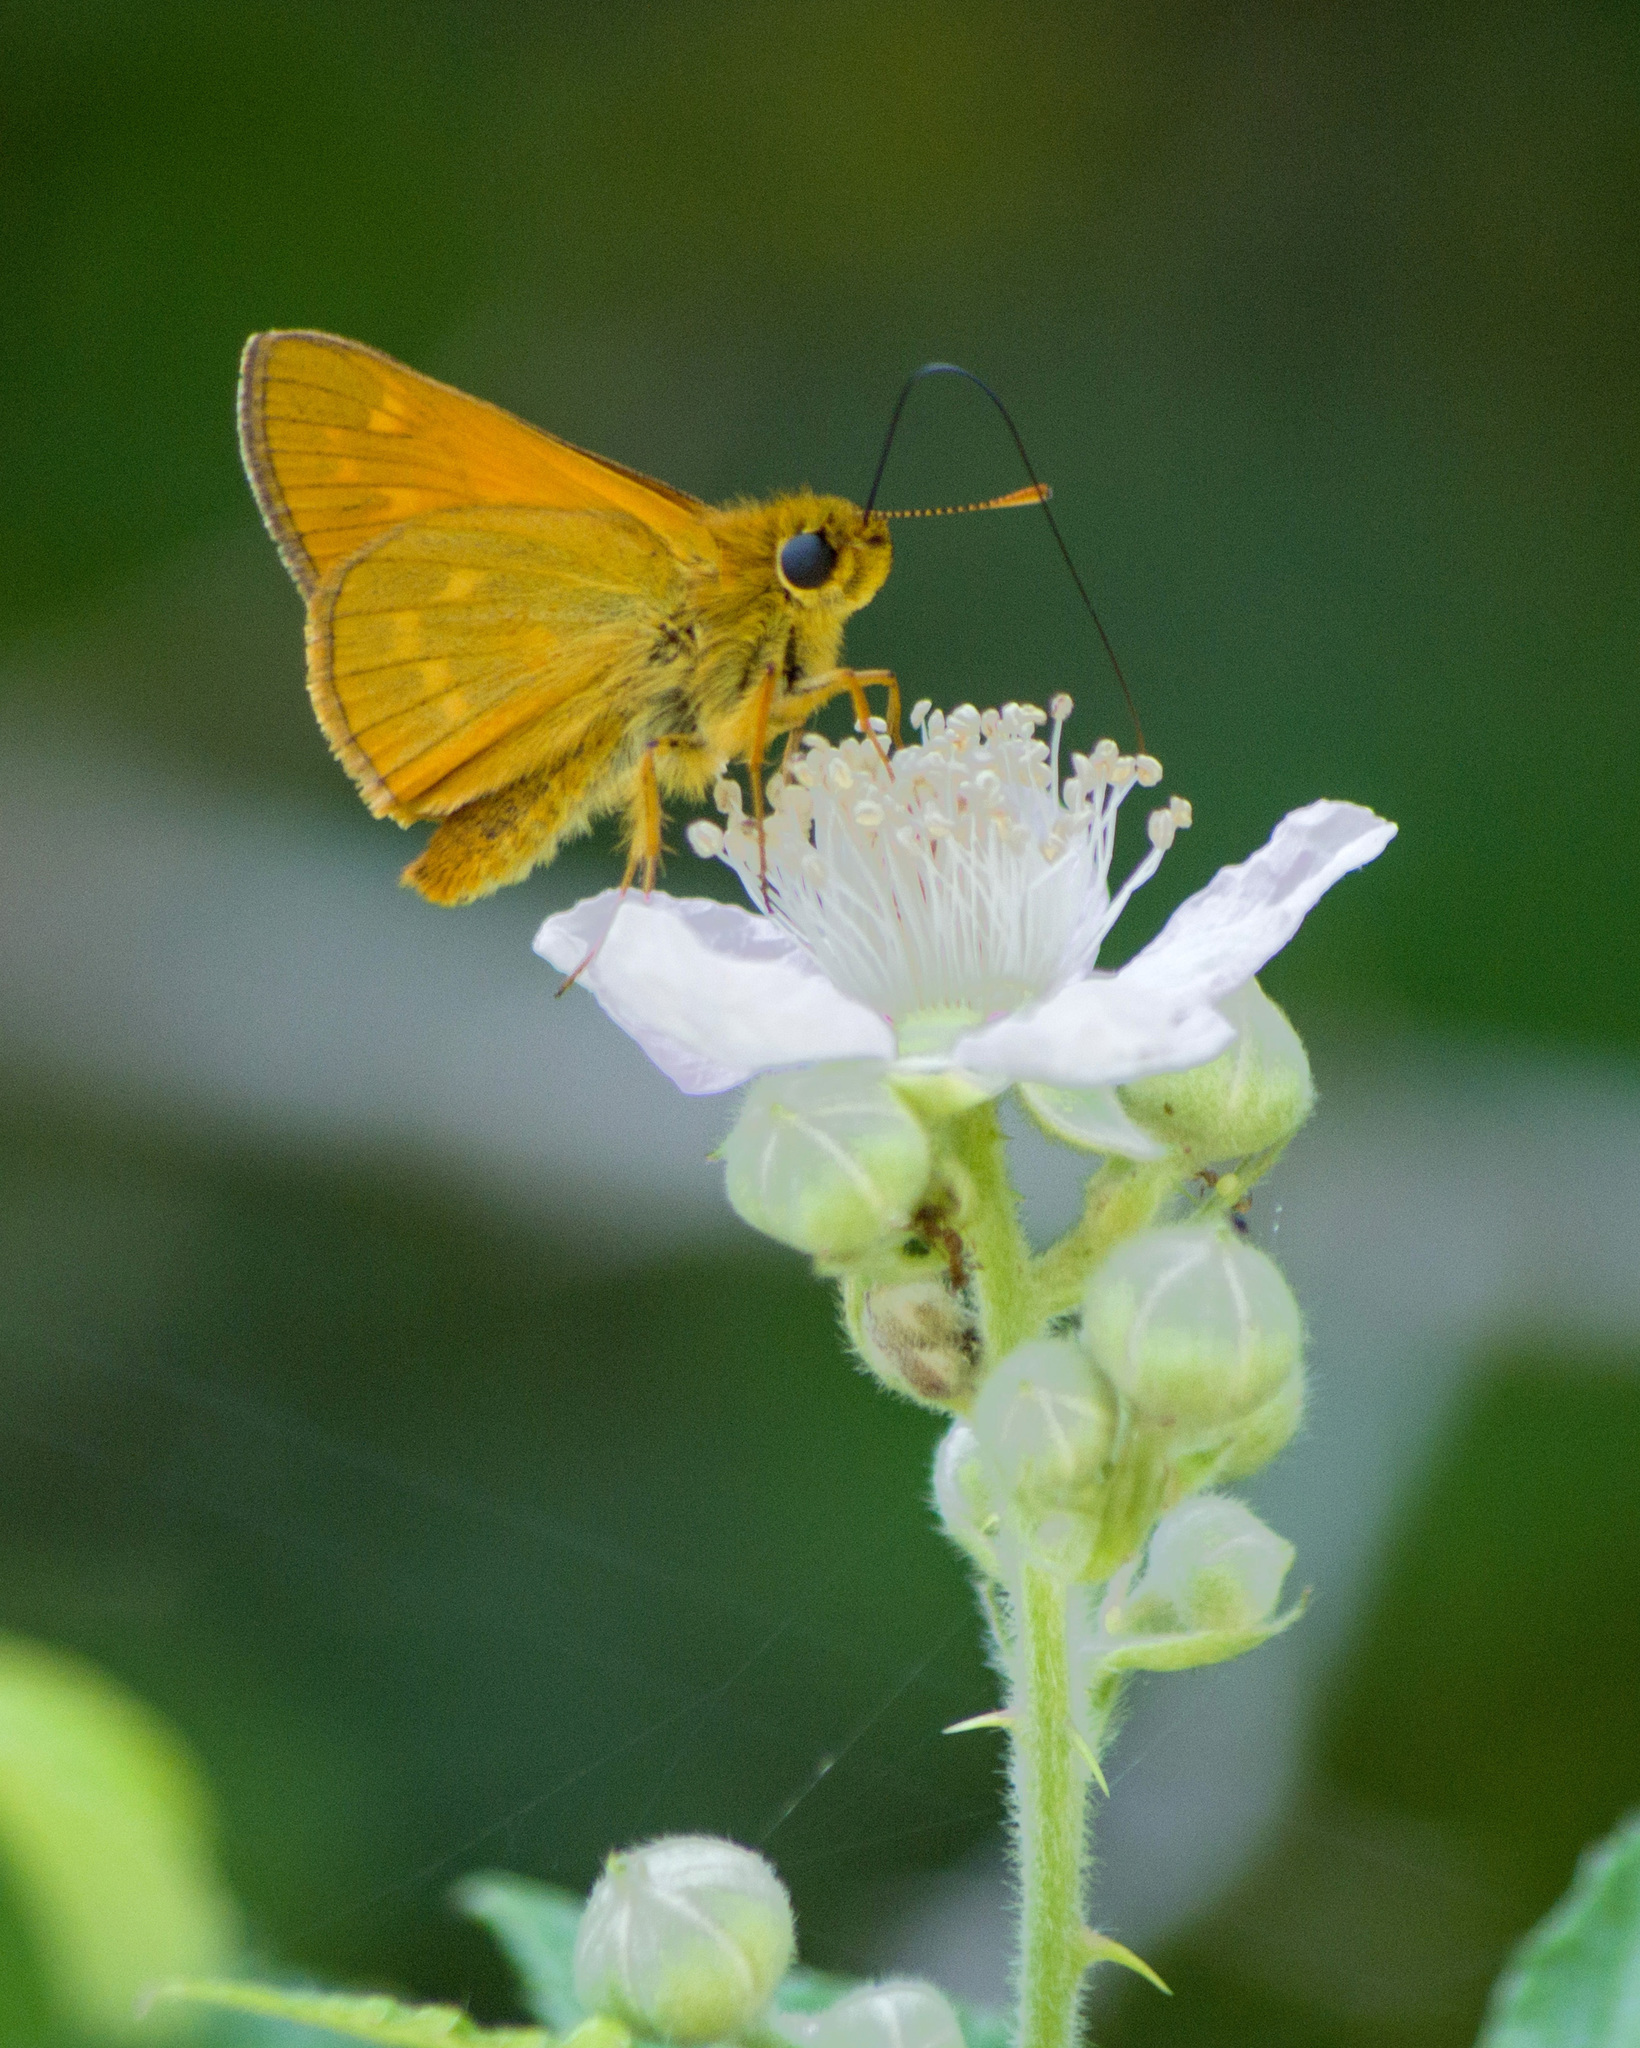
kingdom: Animalia
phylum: Arthropoda
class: Insecta
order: Lepidoptera
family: Hesperiidae
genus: Ochlodes
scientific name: Ochlodes venata
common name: Large skipper
